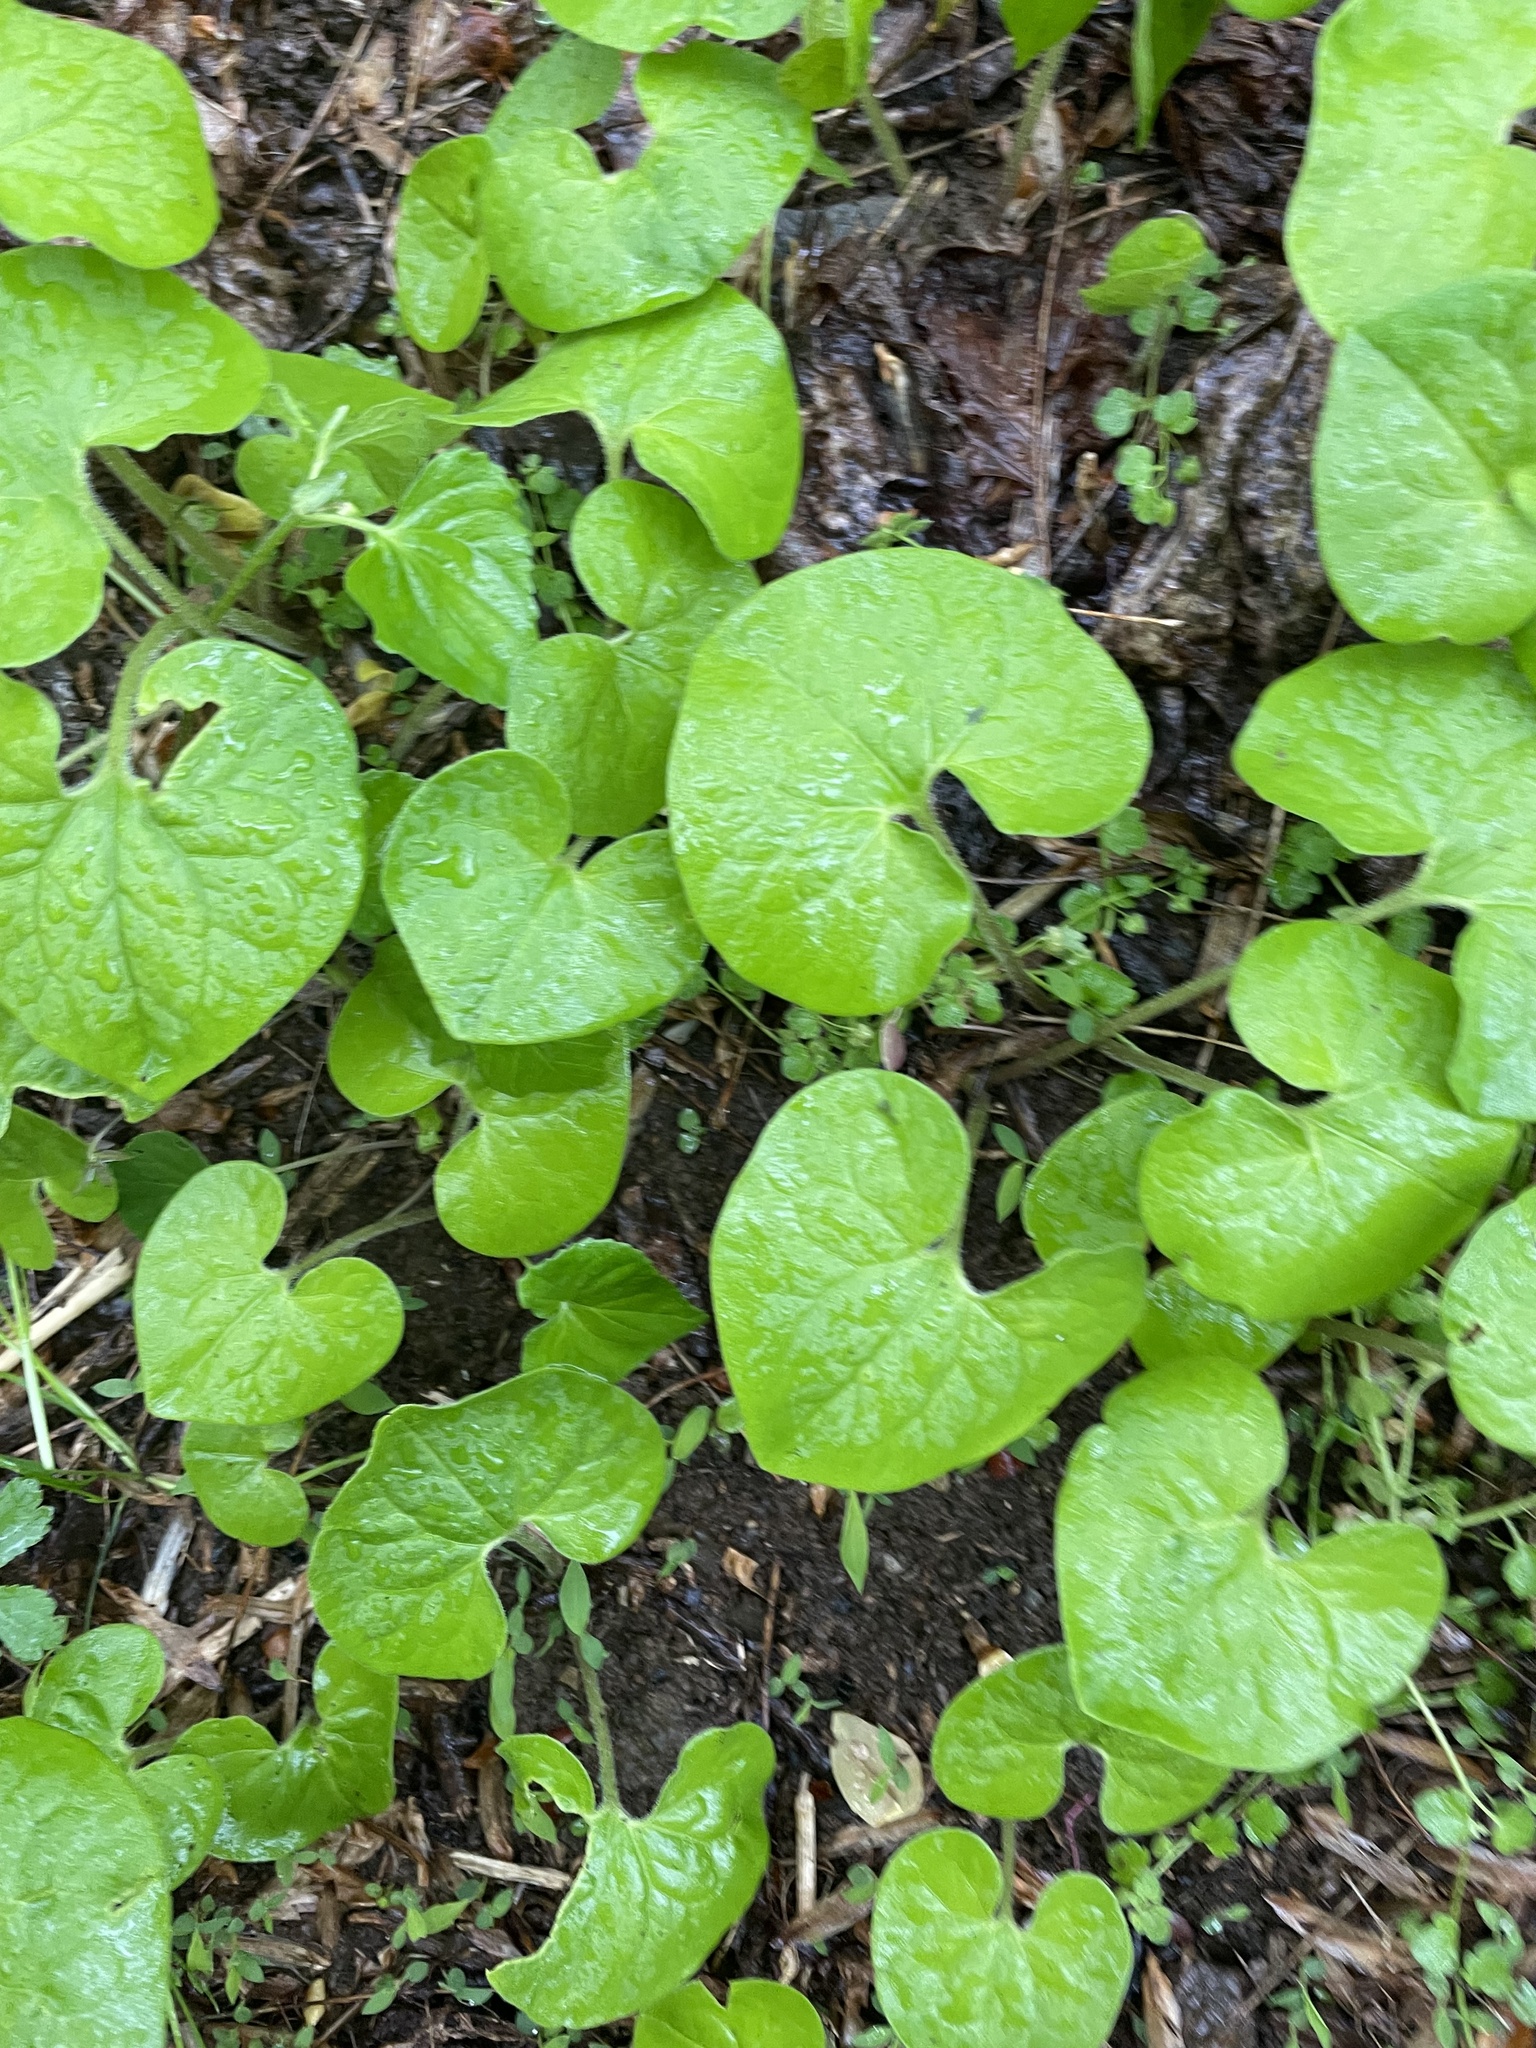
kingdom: Plantae
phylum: Tracheophyta
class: Magnoliopsida
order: Piperales
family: Aristolochiaceae
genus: Asarum
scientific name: Asarum canadense
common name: Wild ginger
